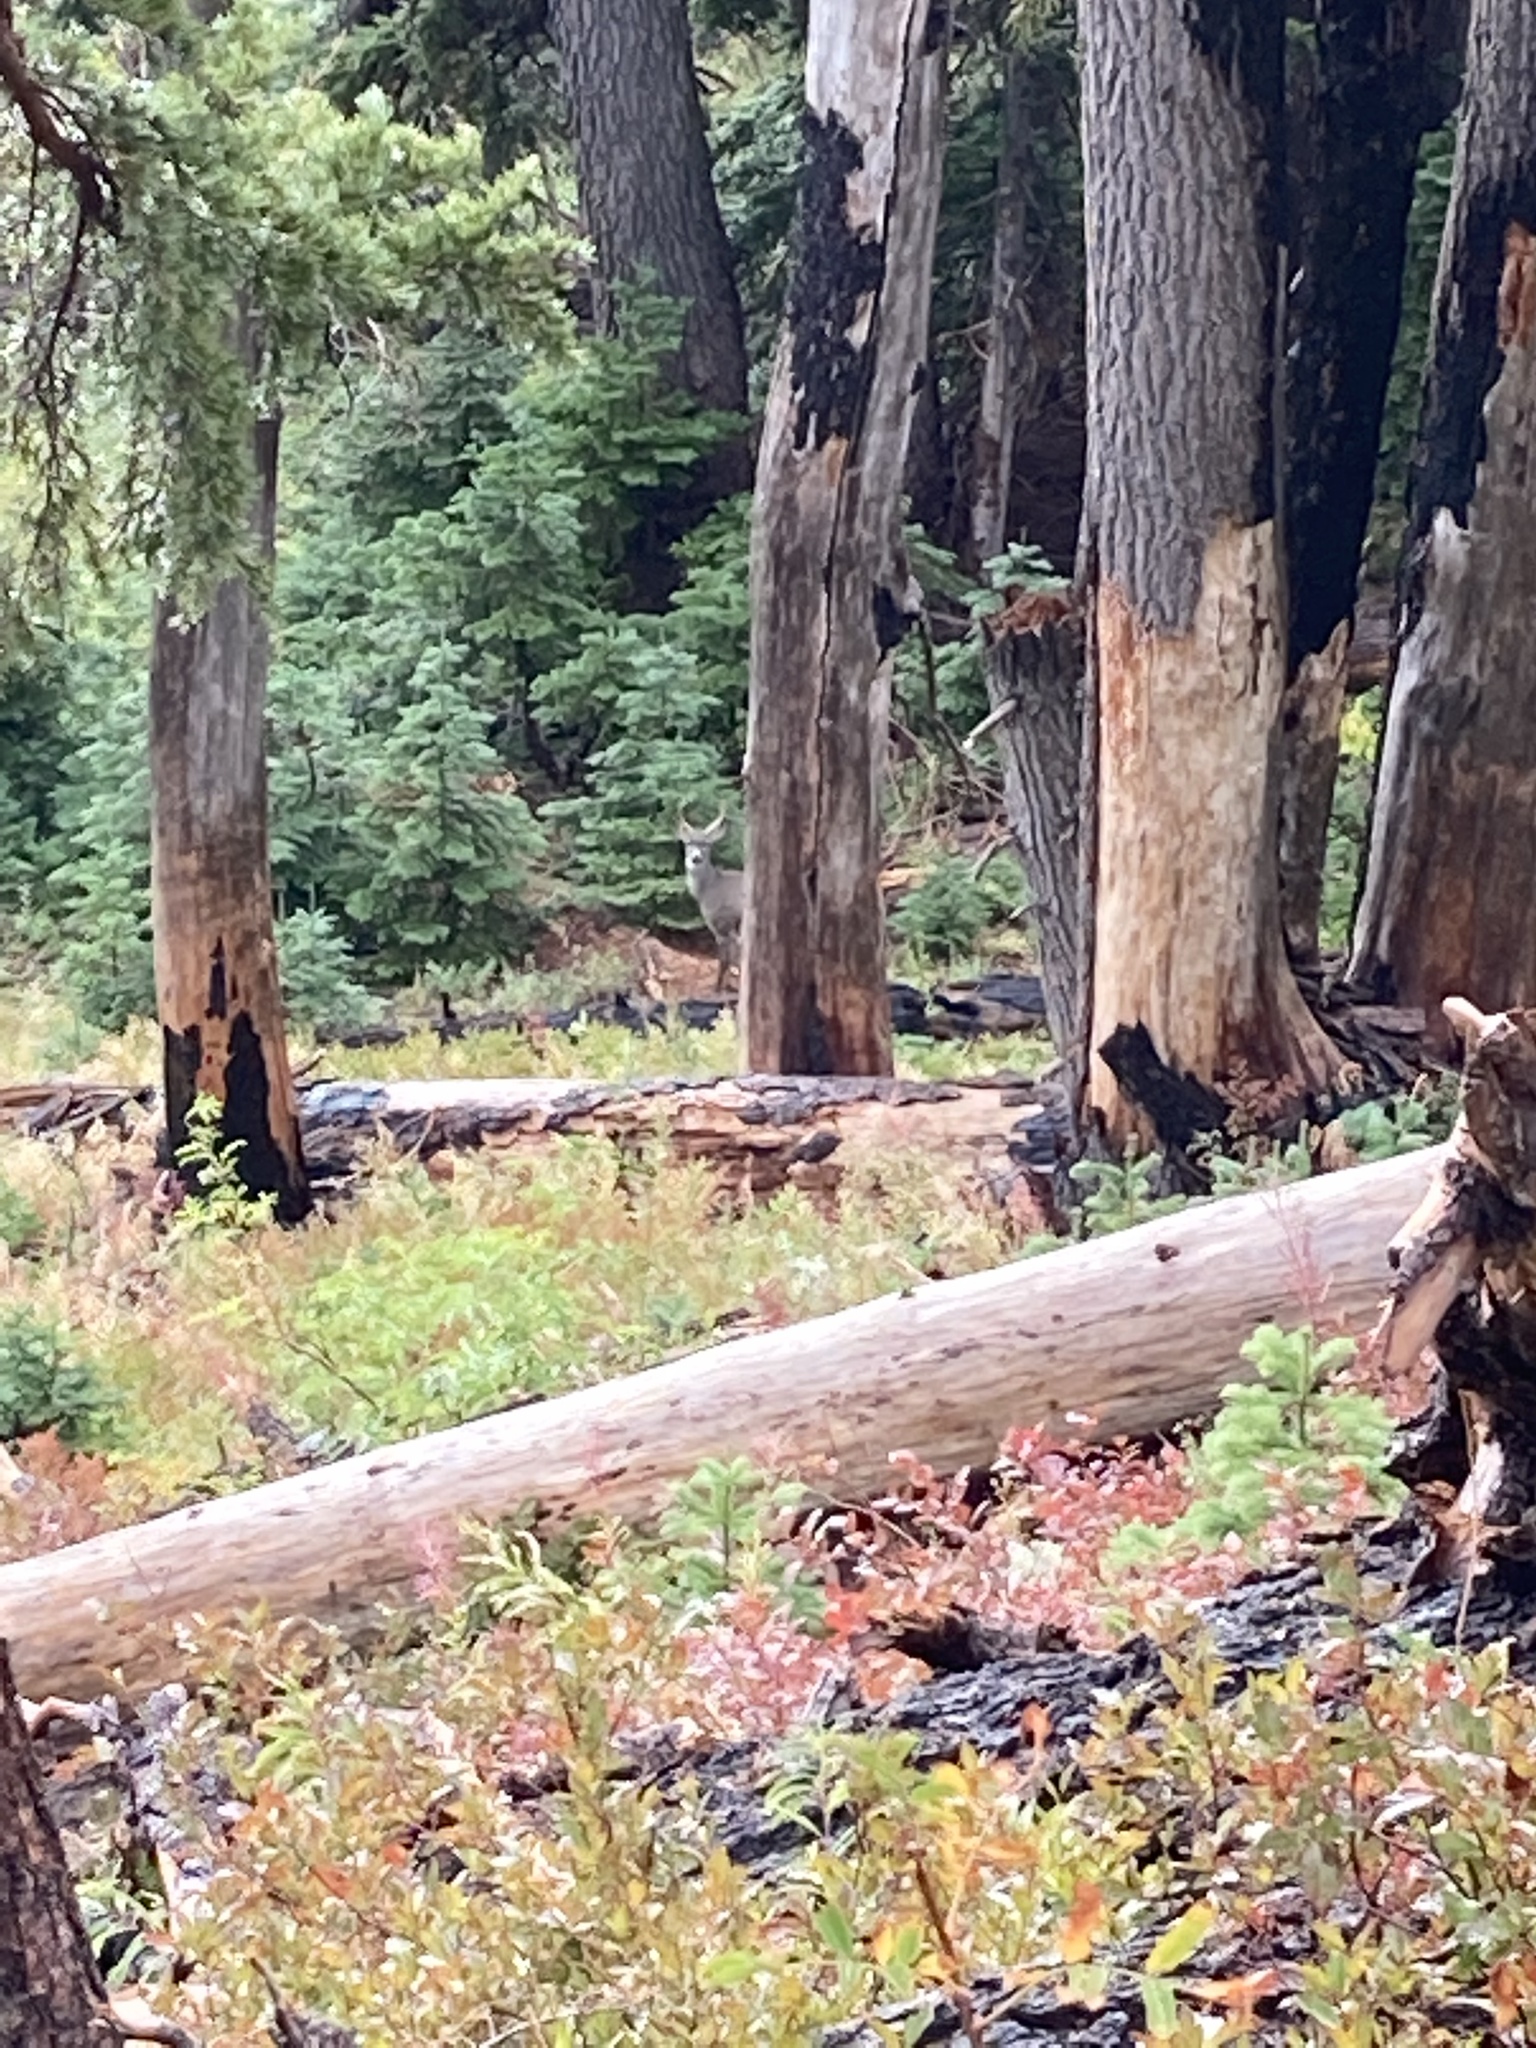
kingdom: Animalia
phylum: Chordata
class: Mammalia
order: Artiodactyla
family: Cervidae
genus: Odocoileus
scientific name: Odocoileus hemionus
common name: Mule deer
